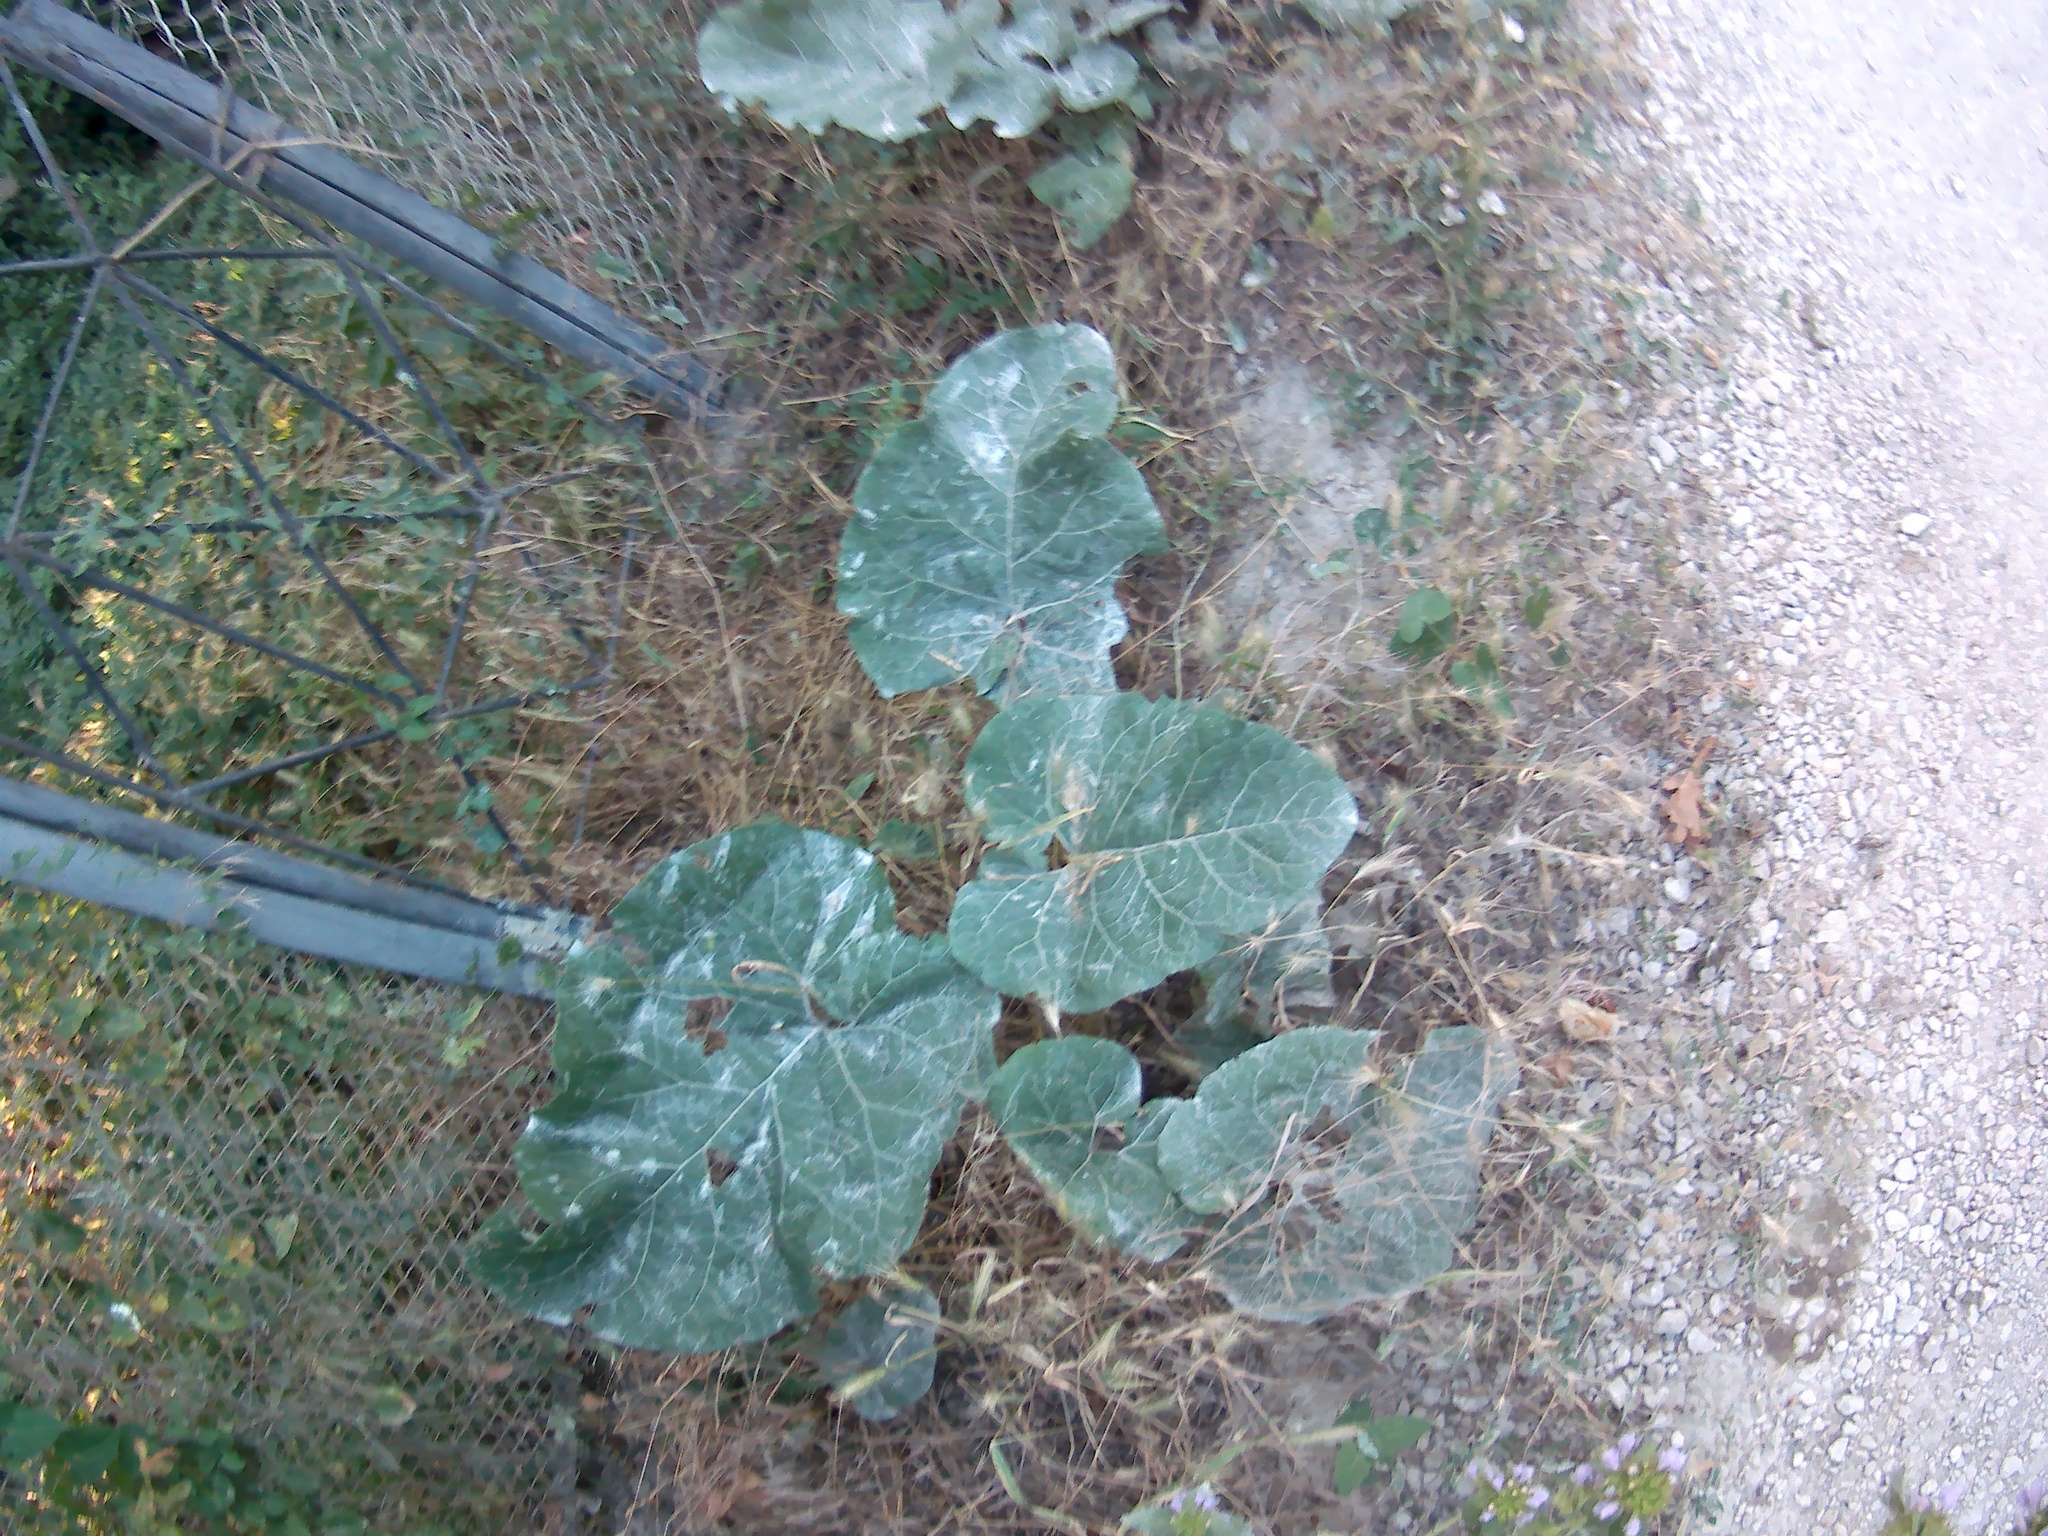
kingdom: Plantae
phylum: Tracheophyta
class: Magnoliopsida
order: Asterales
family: Asteraceae
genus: Arctium
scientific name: Arctium
